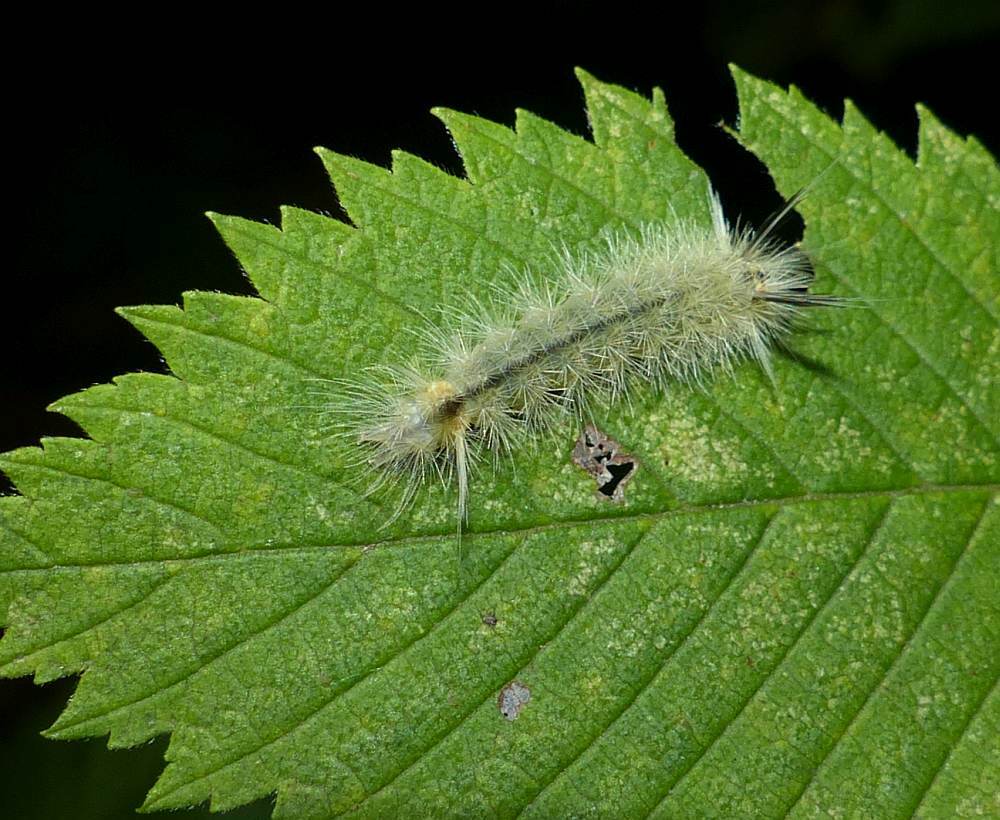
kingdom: Animalia
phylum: Arthropoda
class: Insecta
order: Lepidoptera
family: Erebidae
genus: Halysidota
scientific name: Halysidota tessellaris
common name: Banded tussock moth
